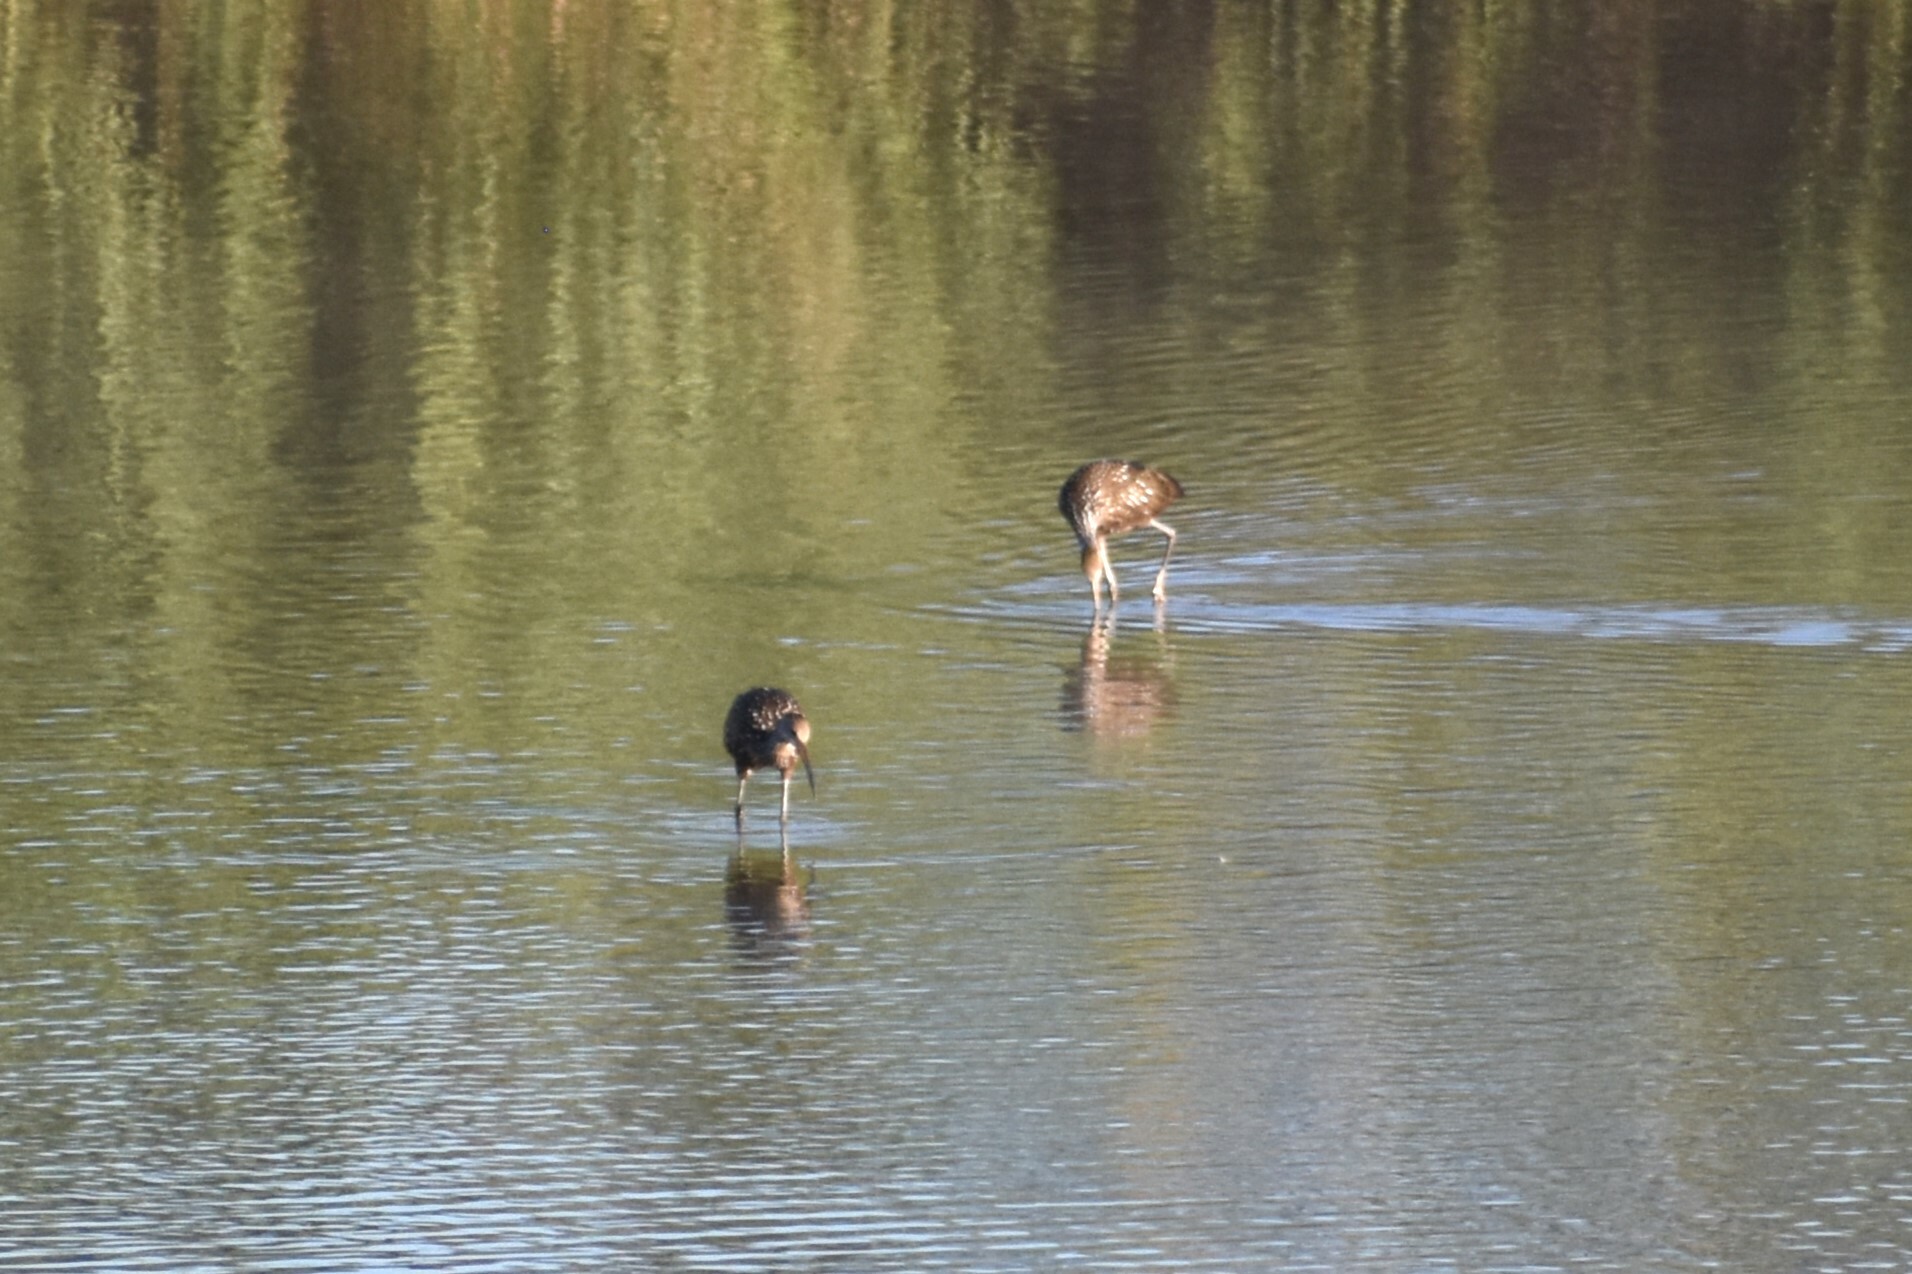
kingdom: Animalia
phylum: Chordata
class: Aves
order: Gruiformes
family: Aramidae
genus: Aramus
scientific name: Aramus guarauna
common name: Limpkin
